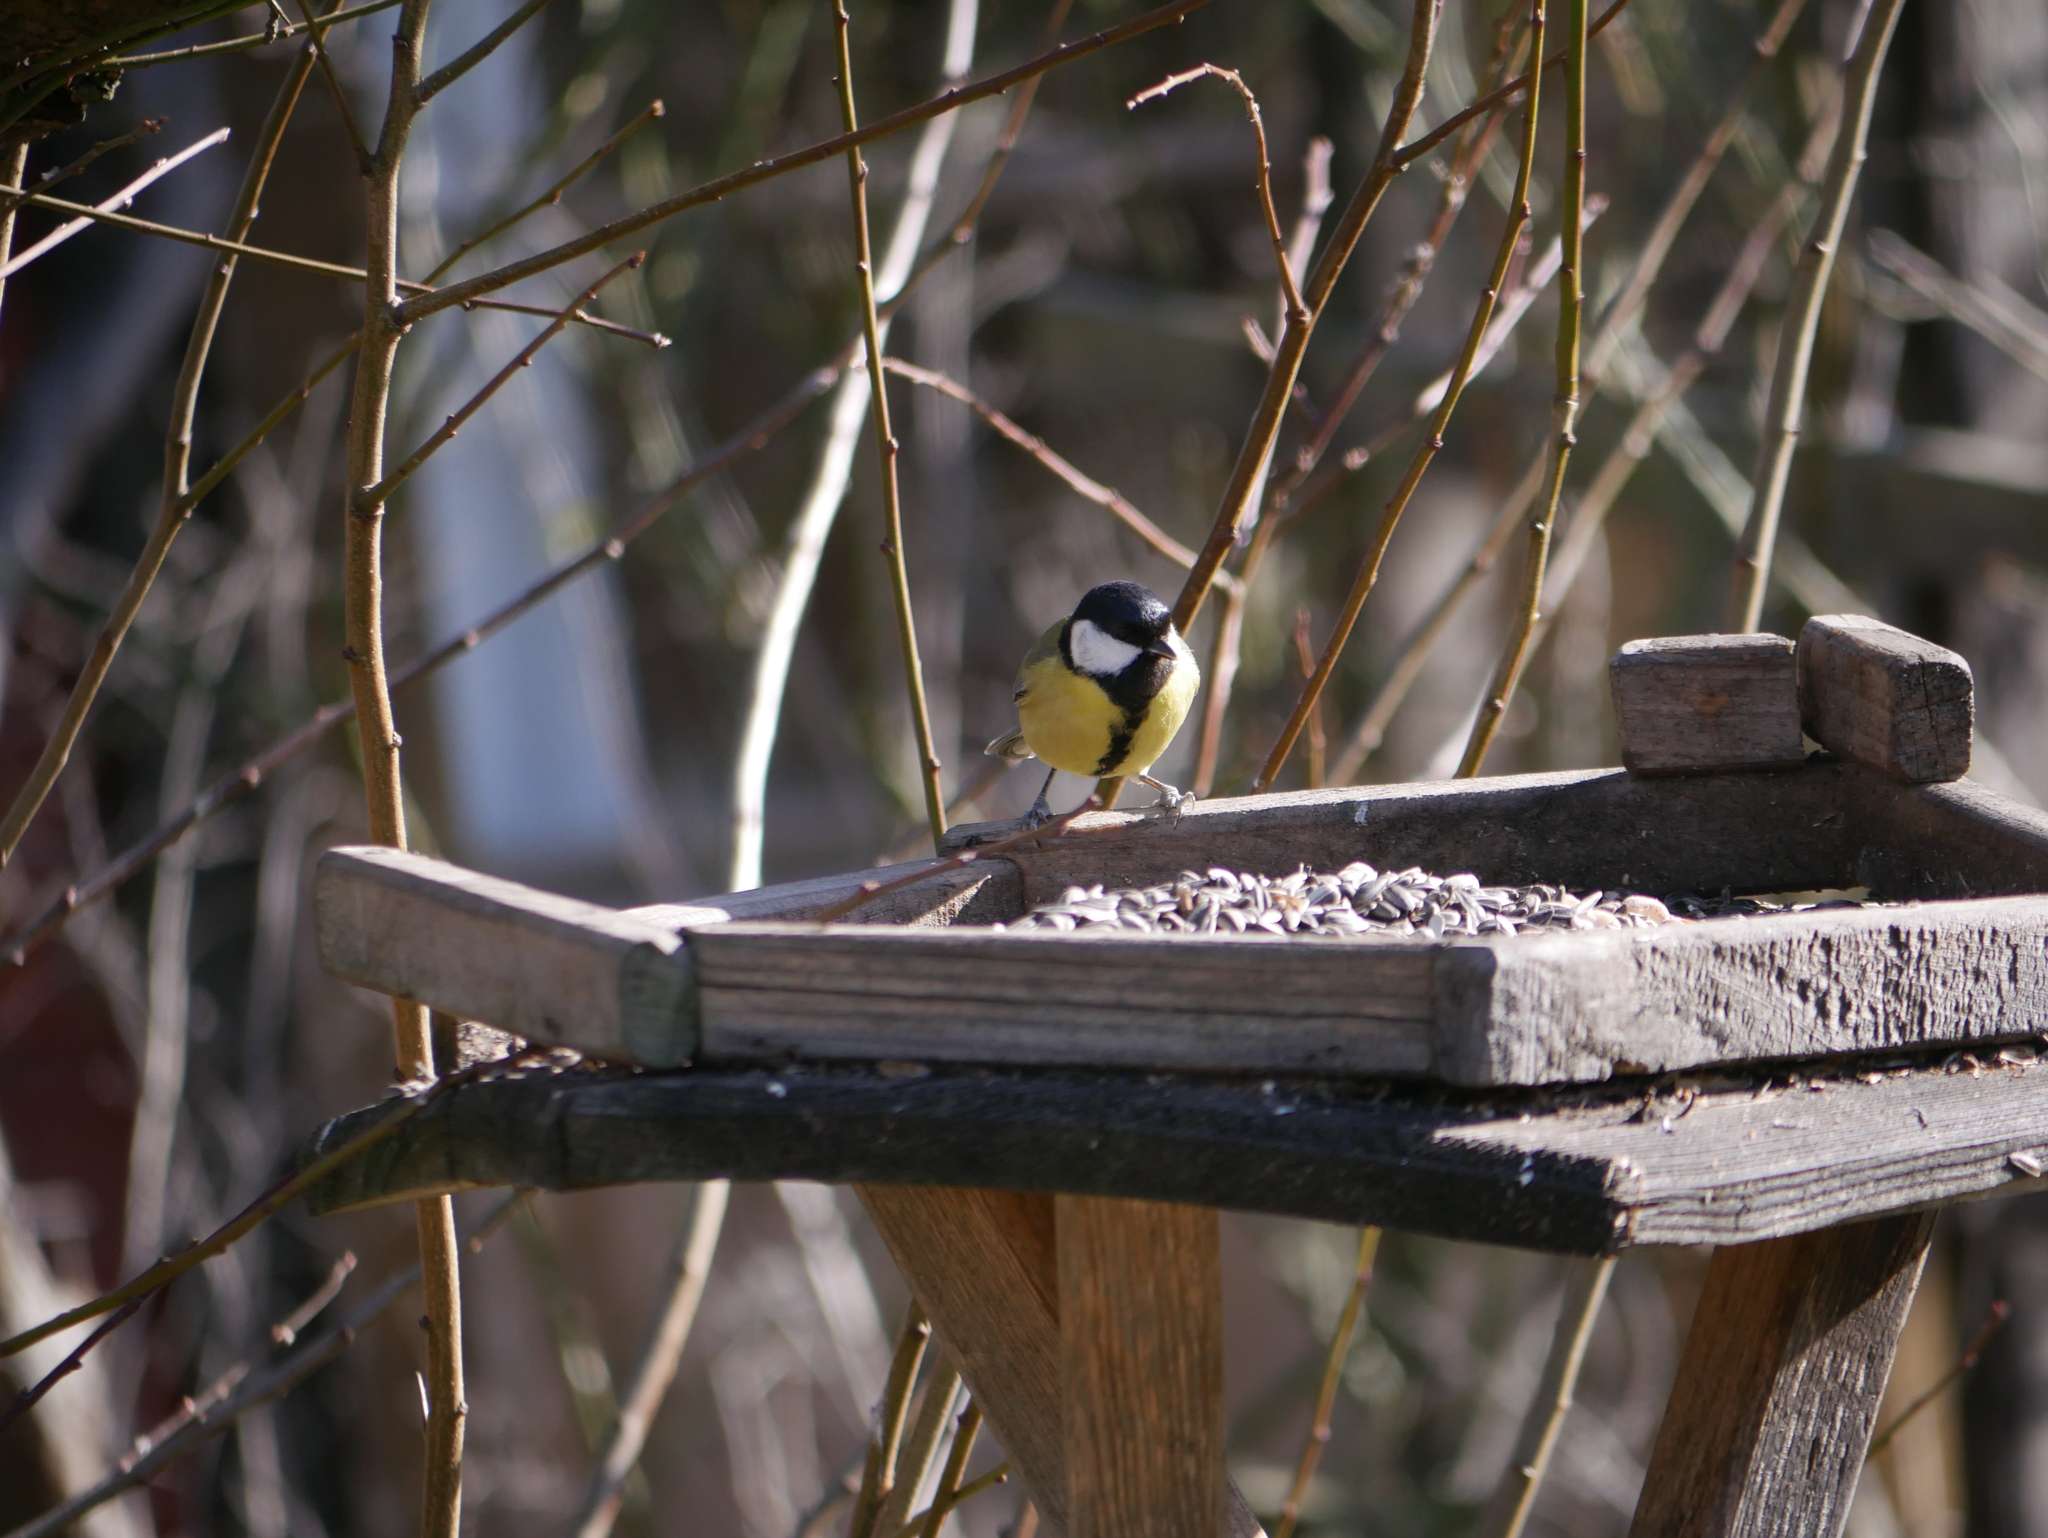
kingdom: Animalia
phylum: Chordata
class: Aves
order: Passeriformes
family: Paridae
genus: Parus
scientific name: Parus major
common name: Great tit
